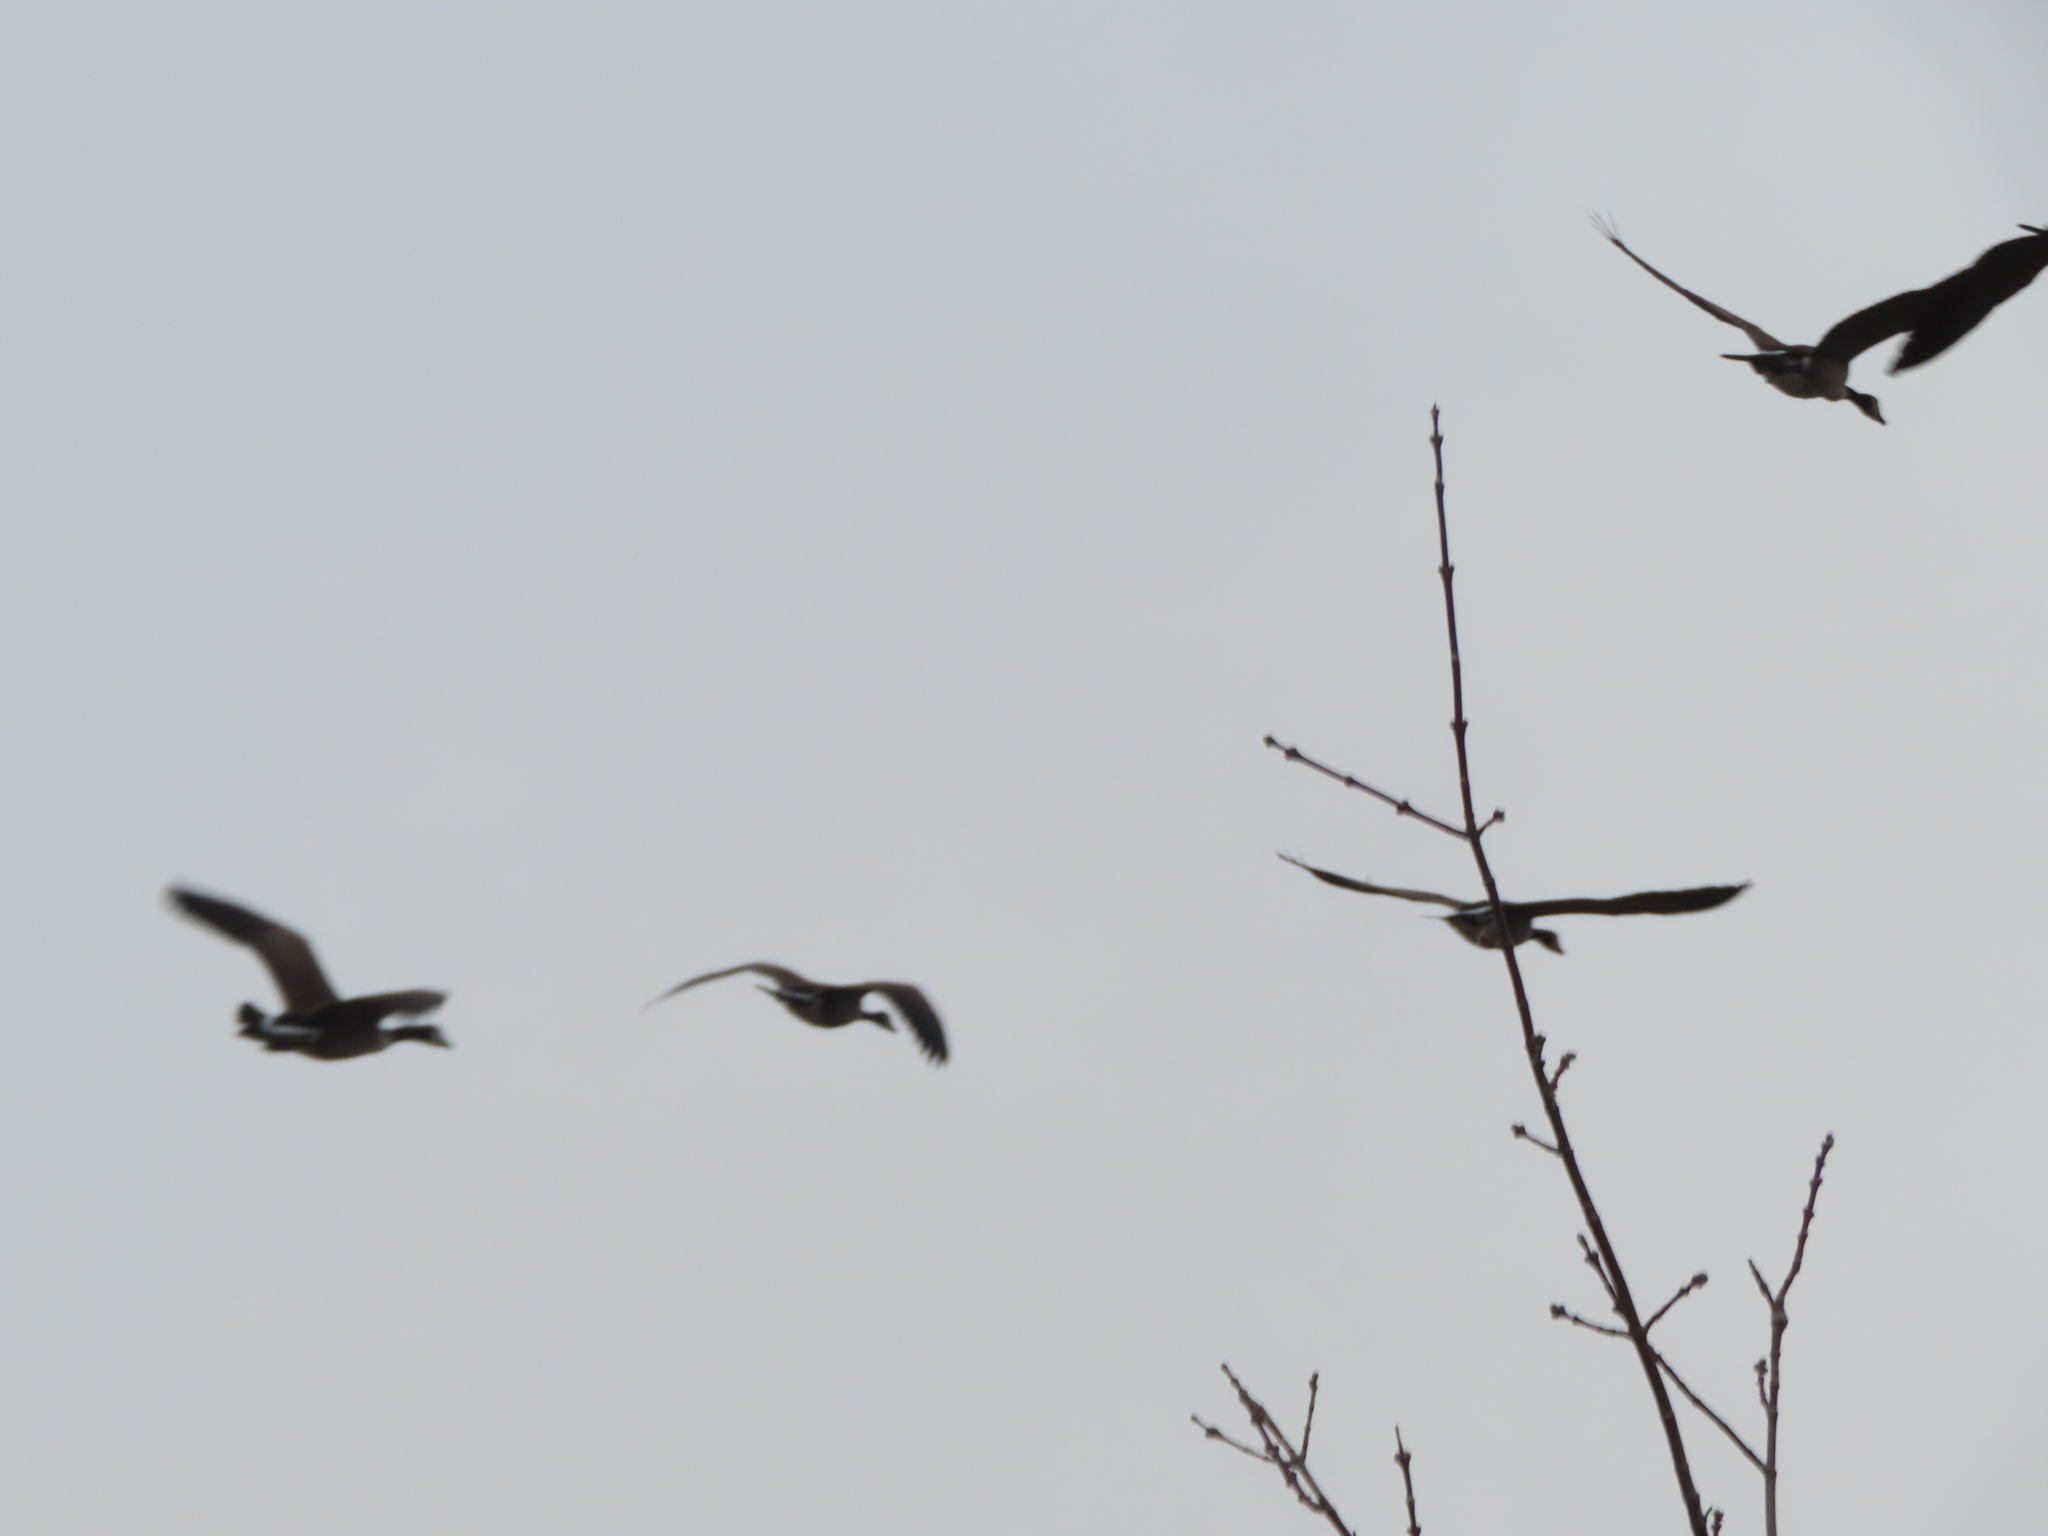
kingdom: Animalia
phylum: Chordata
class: Aves
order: Anseriformes
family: Anatidae
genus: Branta
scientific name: Branta canadensis
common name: Canada goose
